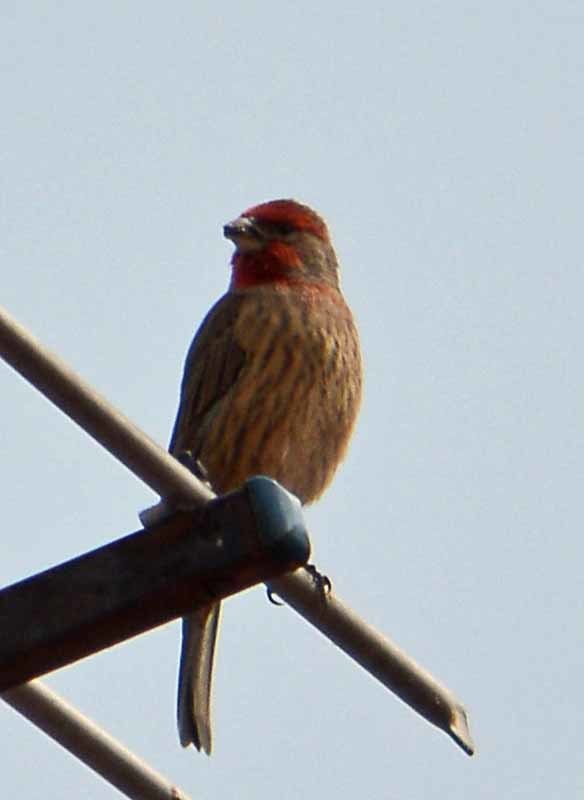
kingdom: Animalia
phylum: Chordata
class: Aves
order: Passeriformes
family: Fringillidae
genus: Haemorhous
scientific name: Haemorhous mexicanus
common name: House finch
